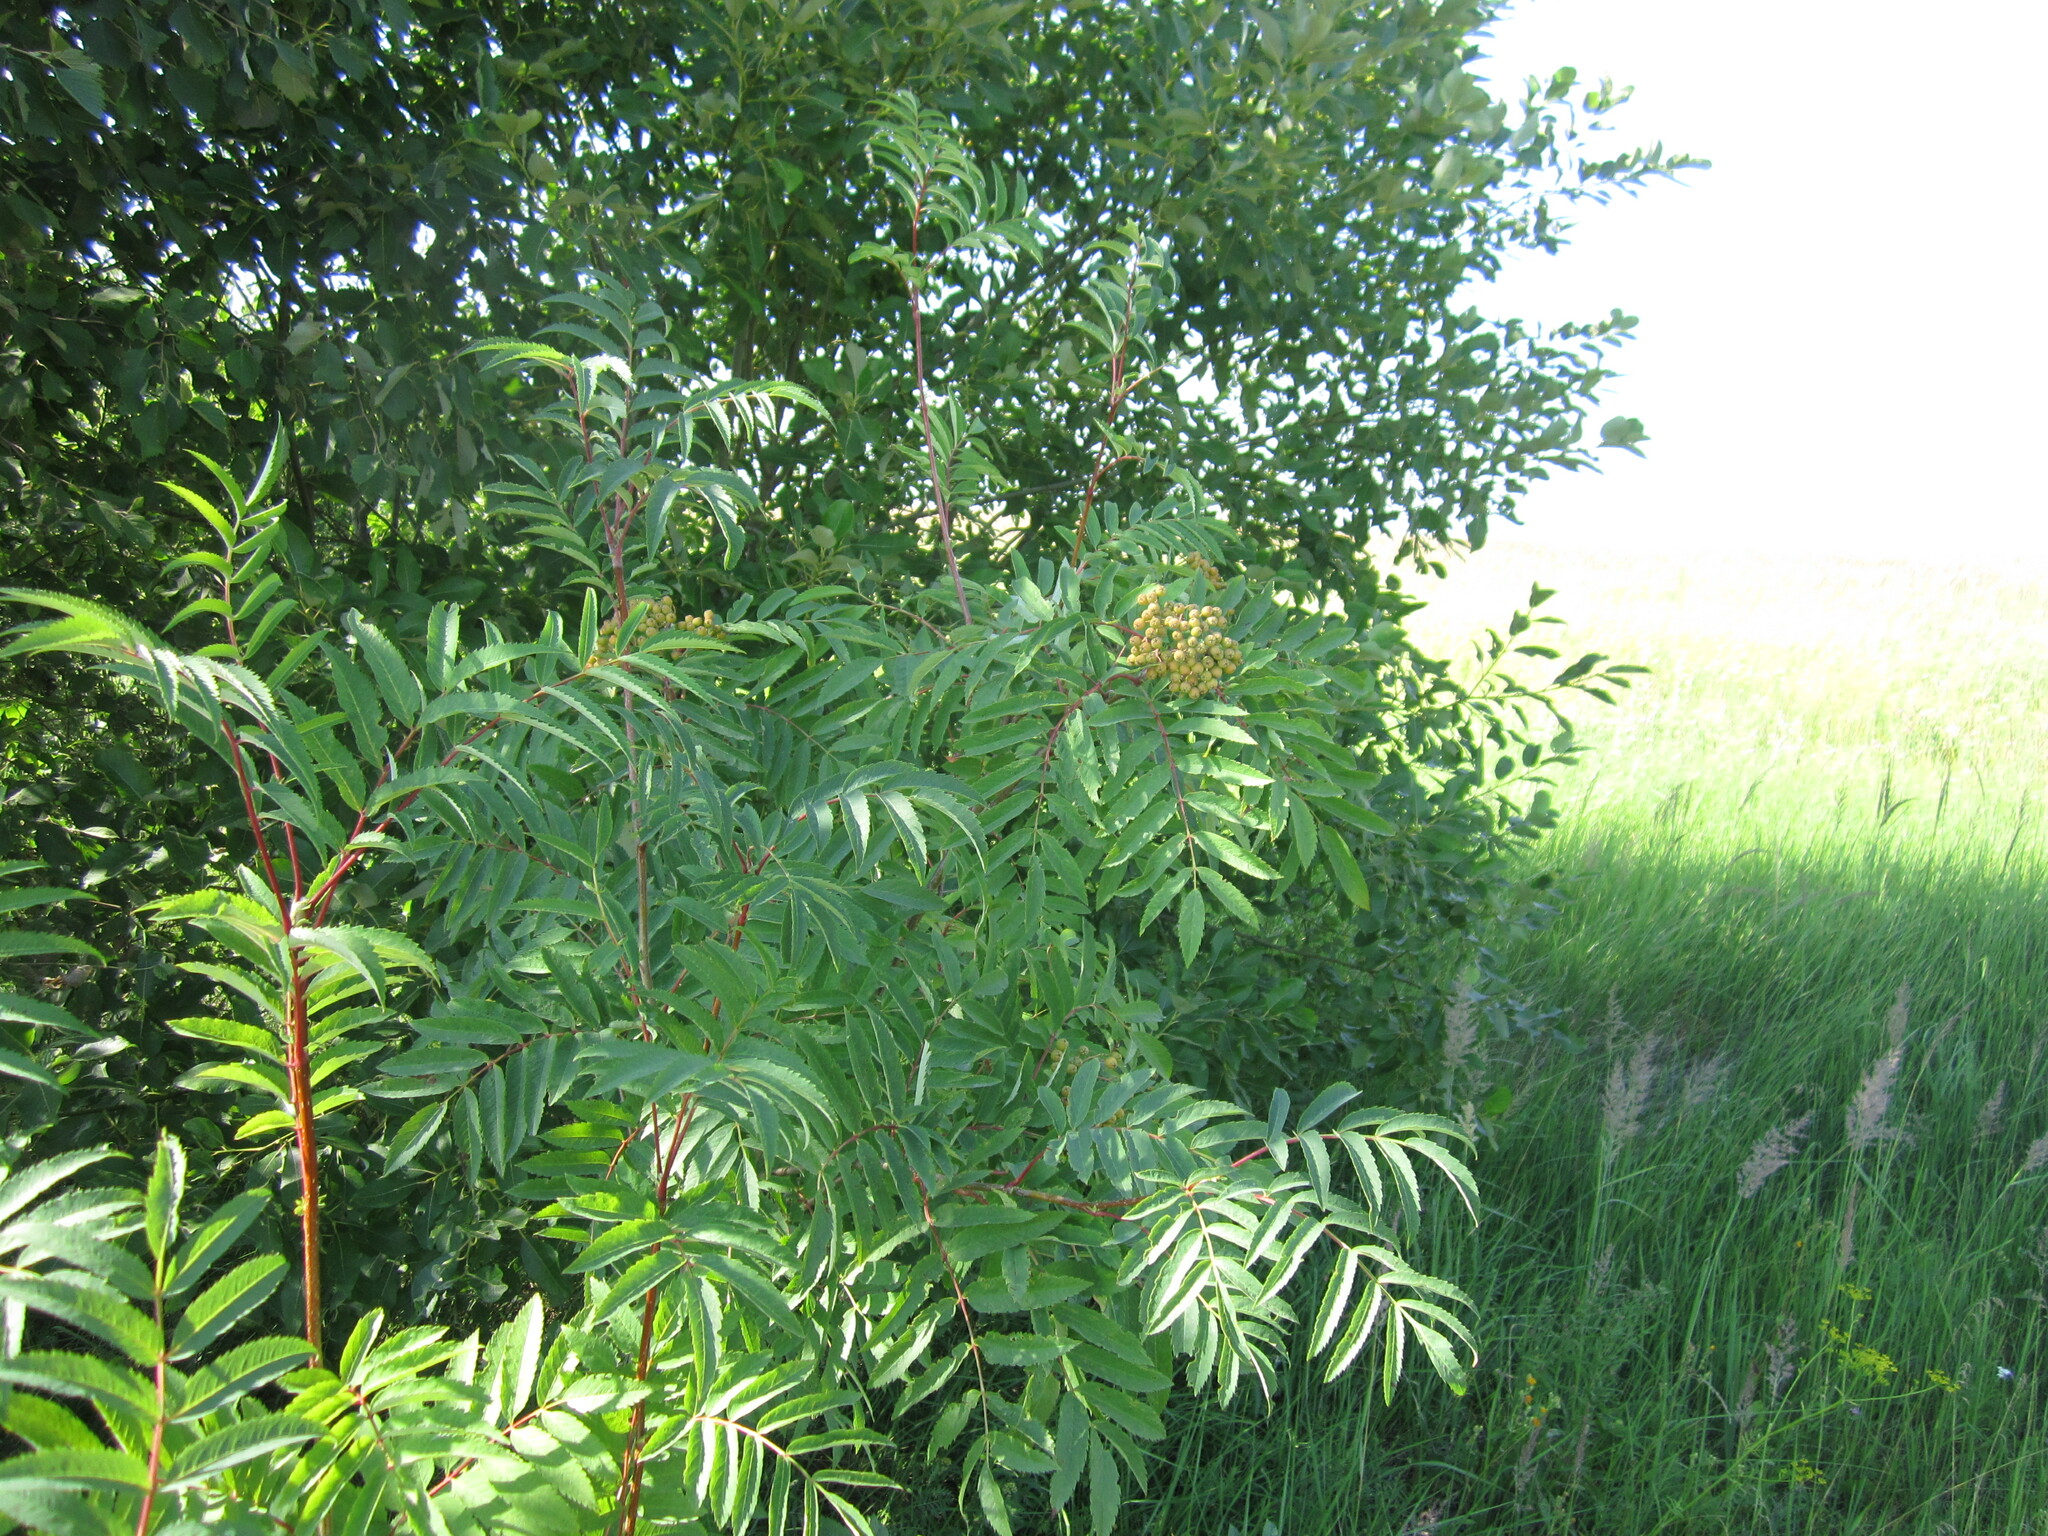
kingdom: Plantae
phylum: Tracheophyta
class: Magnoliopsida
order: Rosales
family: Rosaceae
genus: Sorbus
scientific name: Sorbus aucuparia
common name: Rowan
